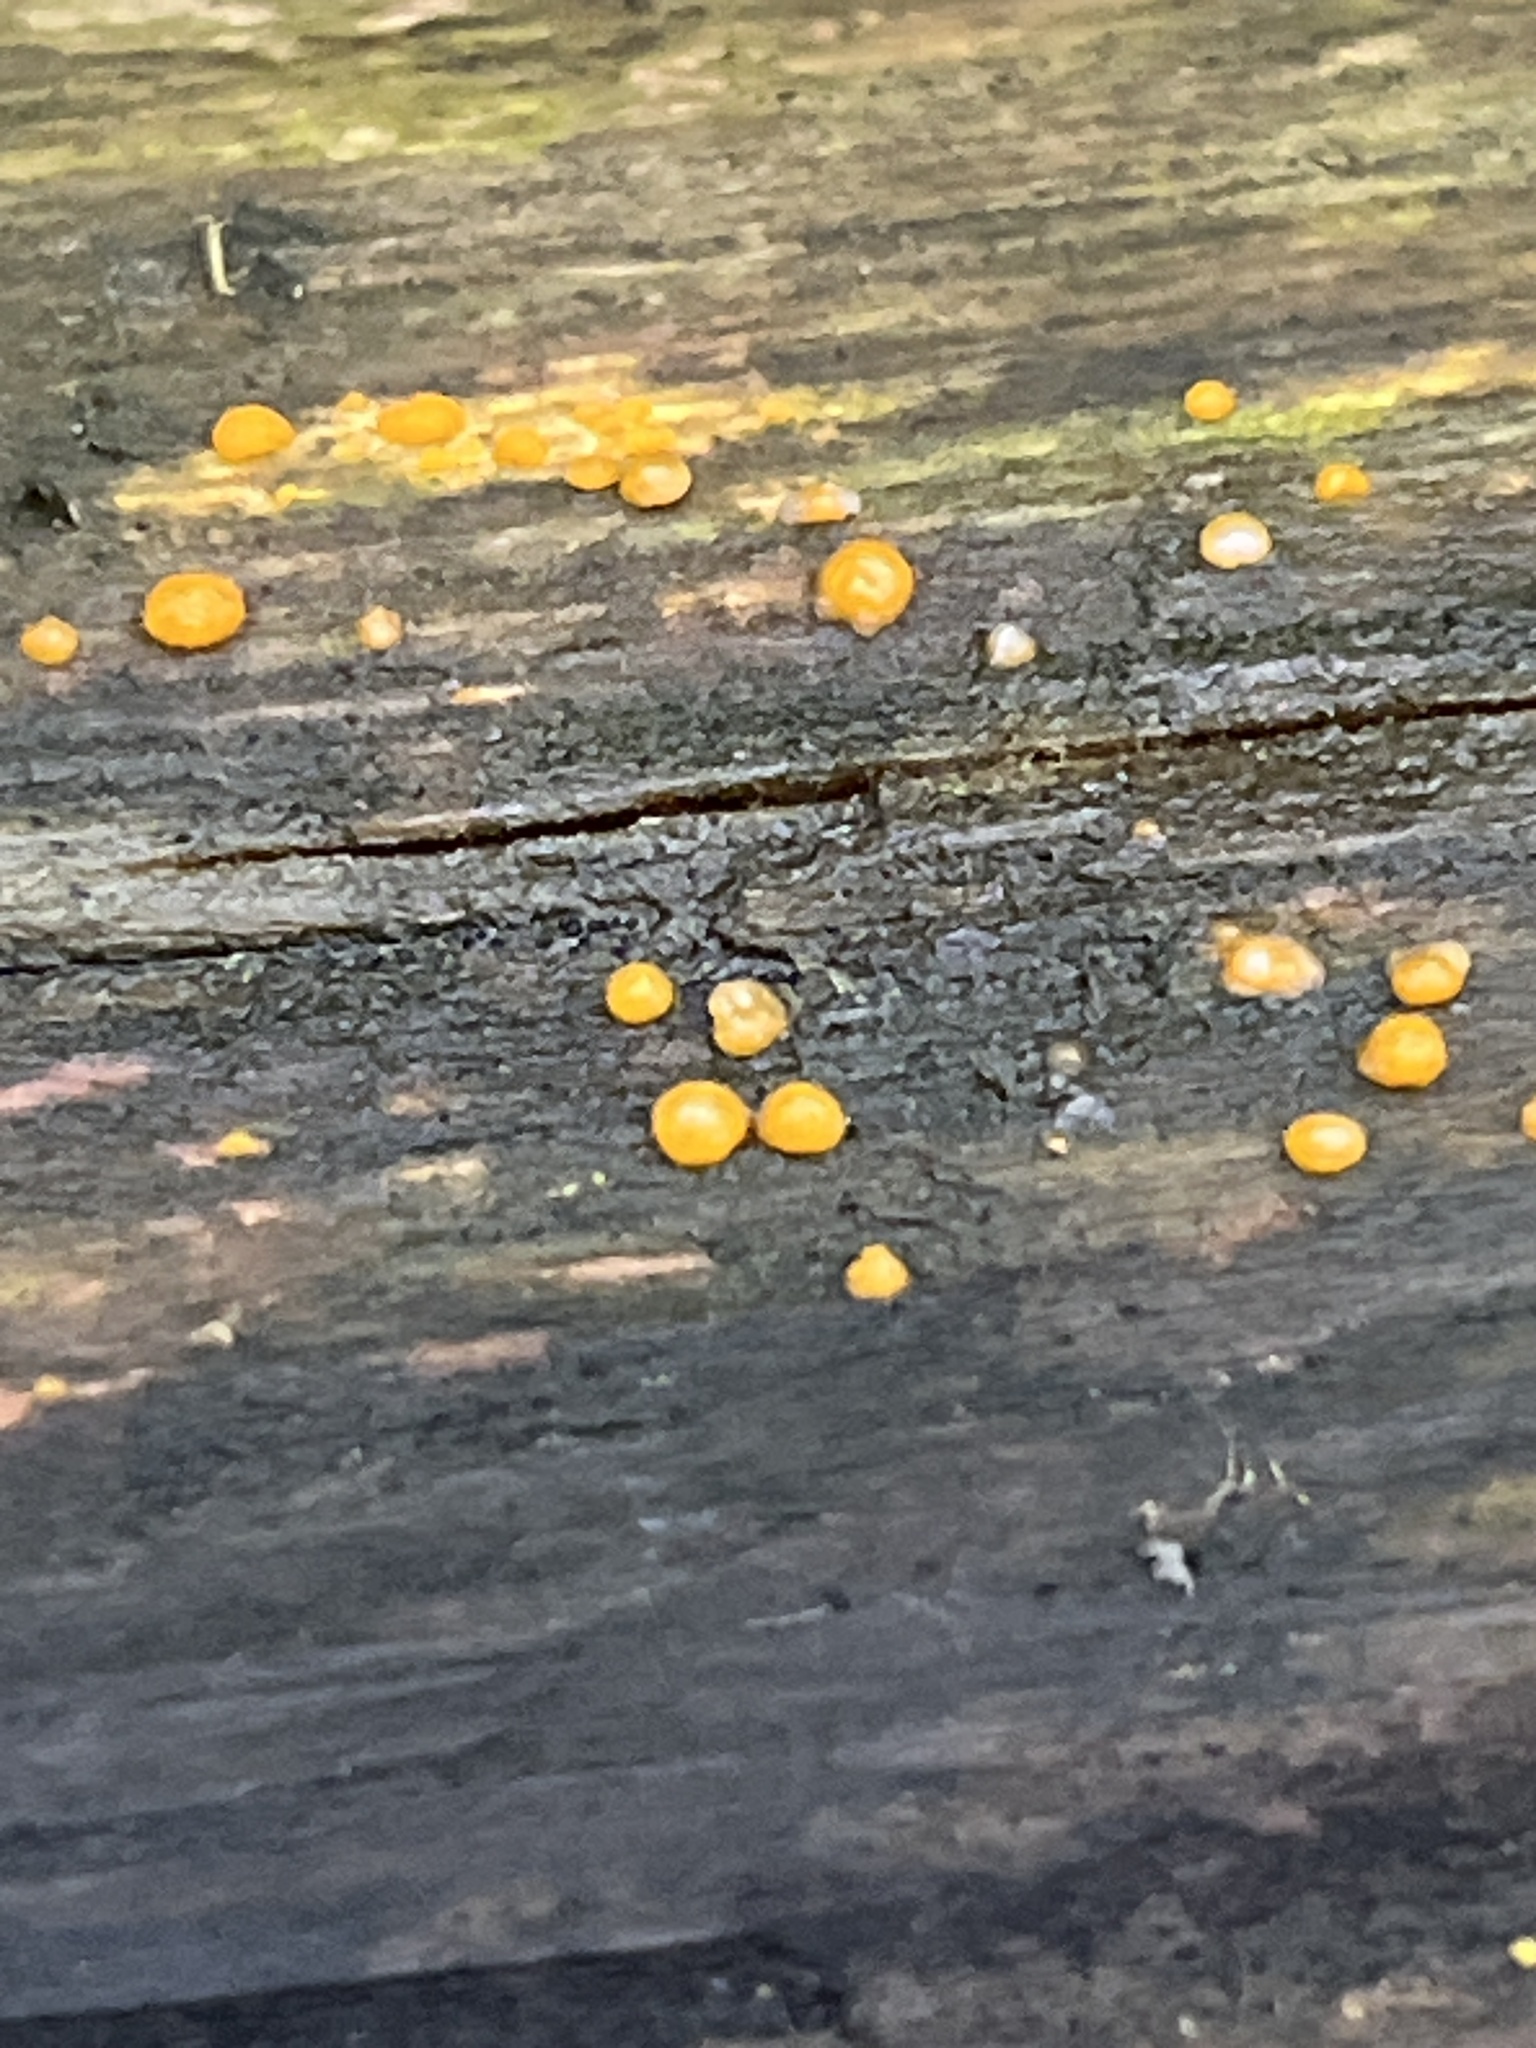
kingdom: Fungi
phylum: Basidiomycota
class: Dacrymycetes
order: Dacrymycetales
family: Dacrymycetaceae
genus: Dacrymyces
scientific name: Dacrymyces stillatus
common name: Common jelly spot
